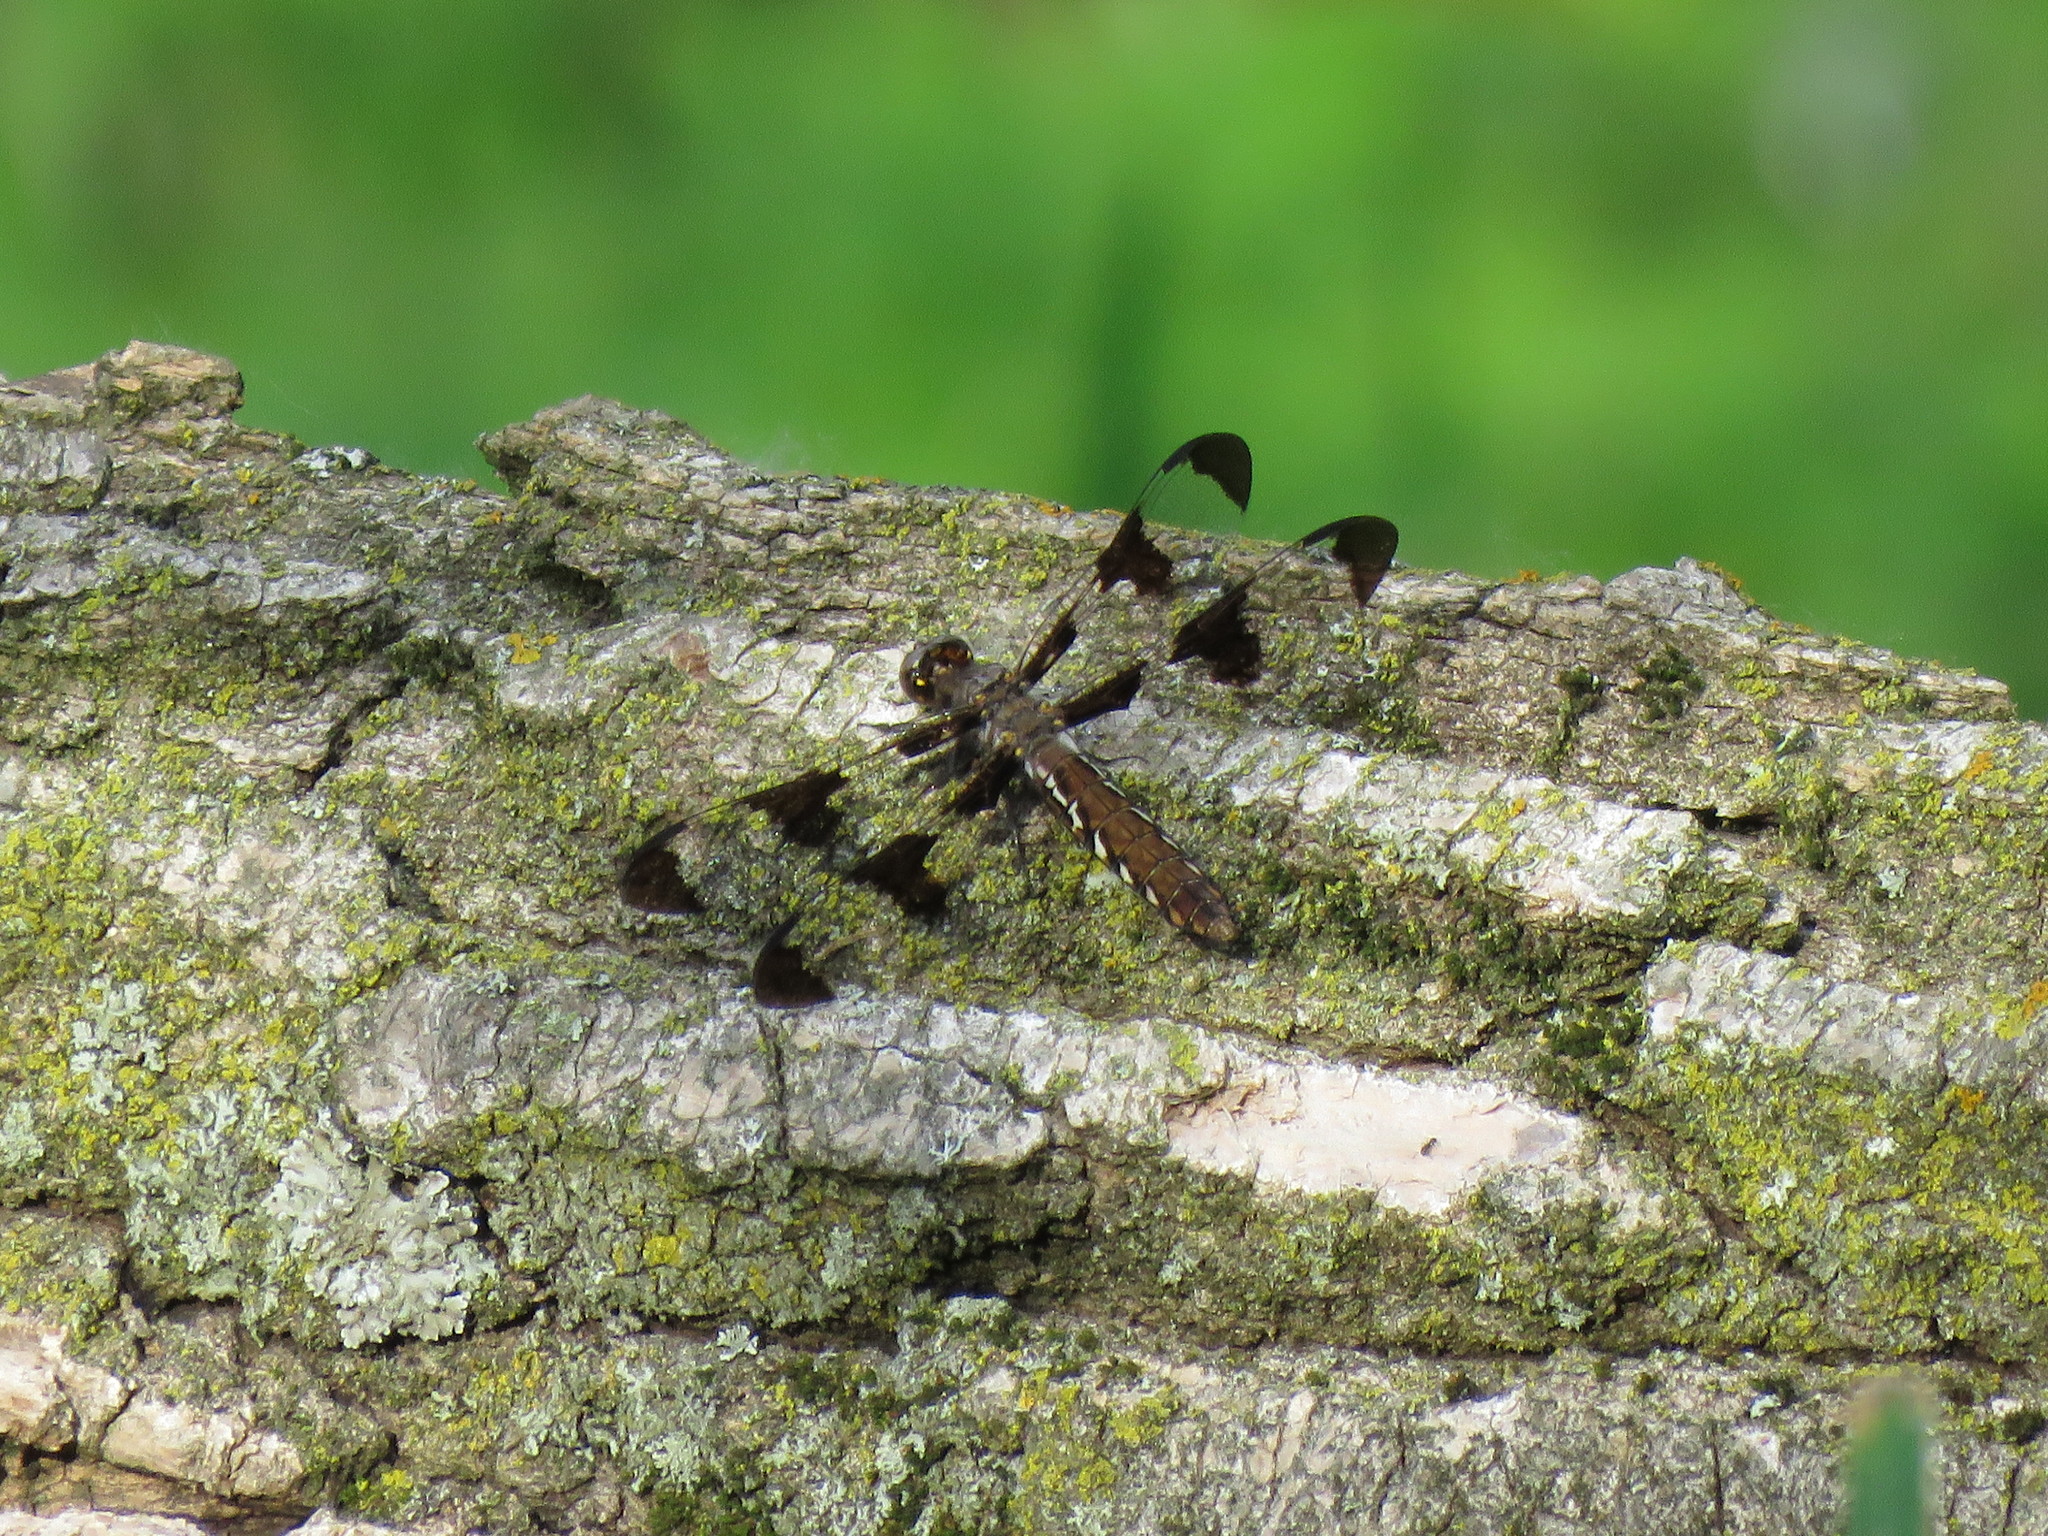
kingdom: Animalia
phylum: Arthropoda
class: Insecta
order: Odonata
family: Libellulidae
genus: Plathemis
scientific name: Plathemis lydia
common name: Common whitetail
